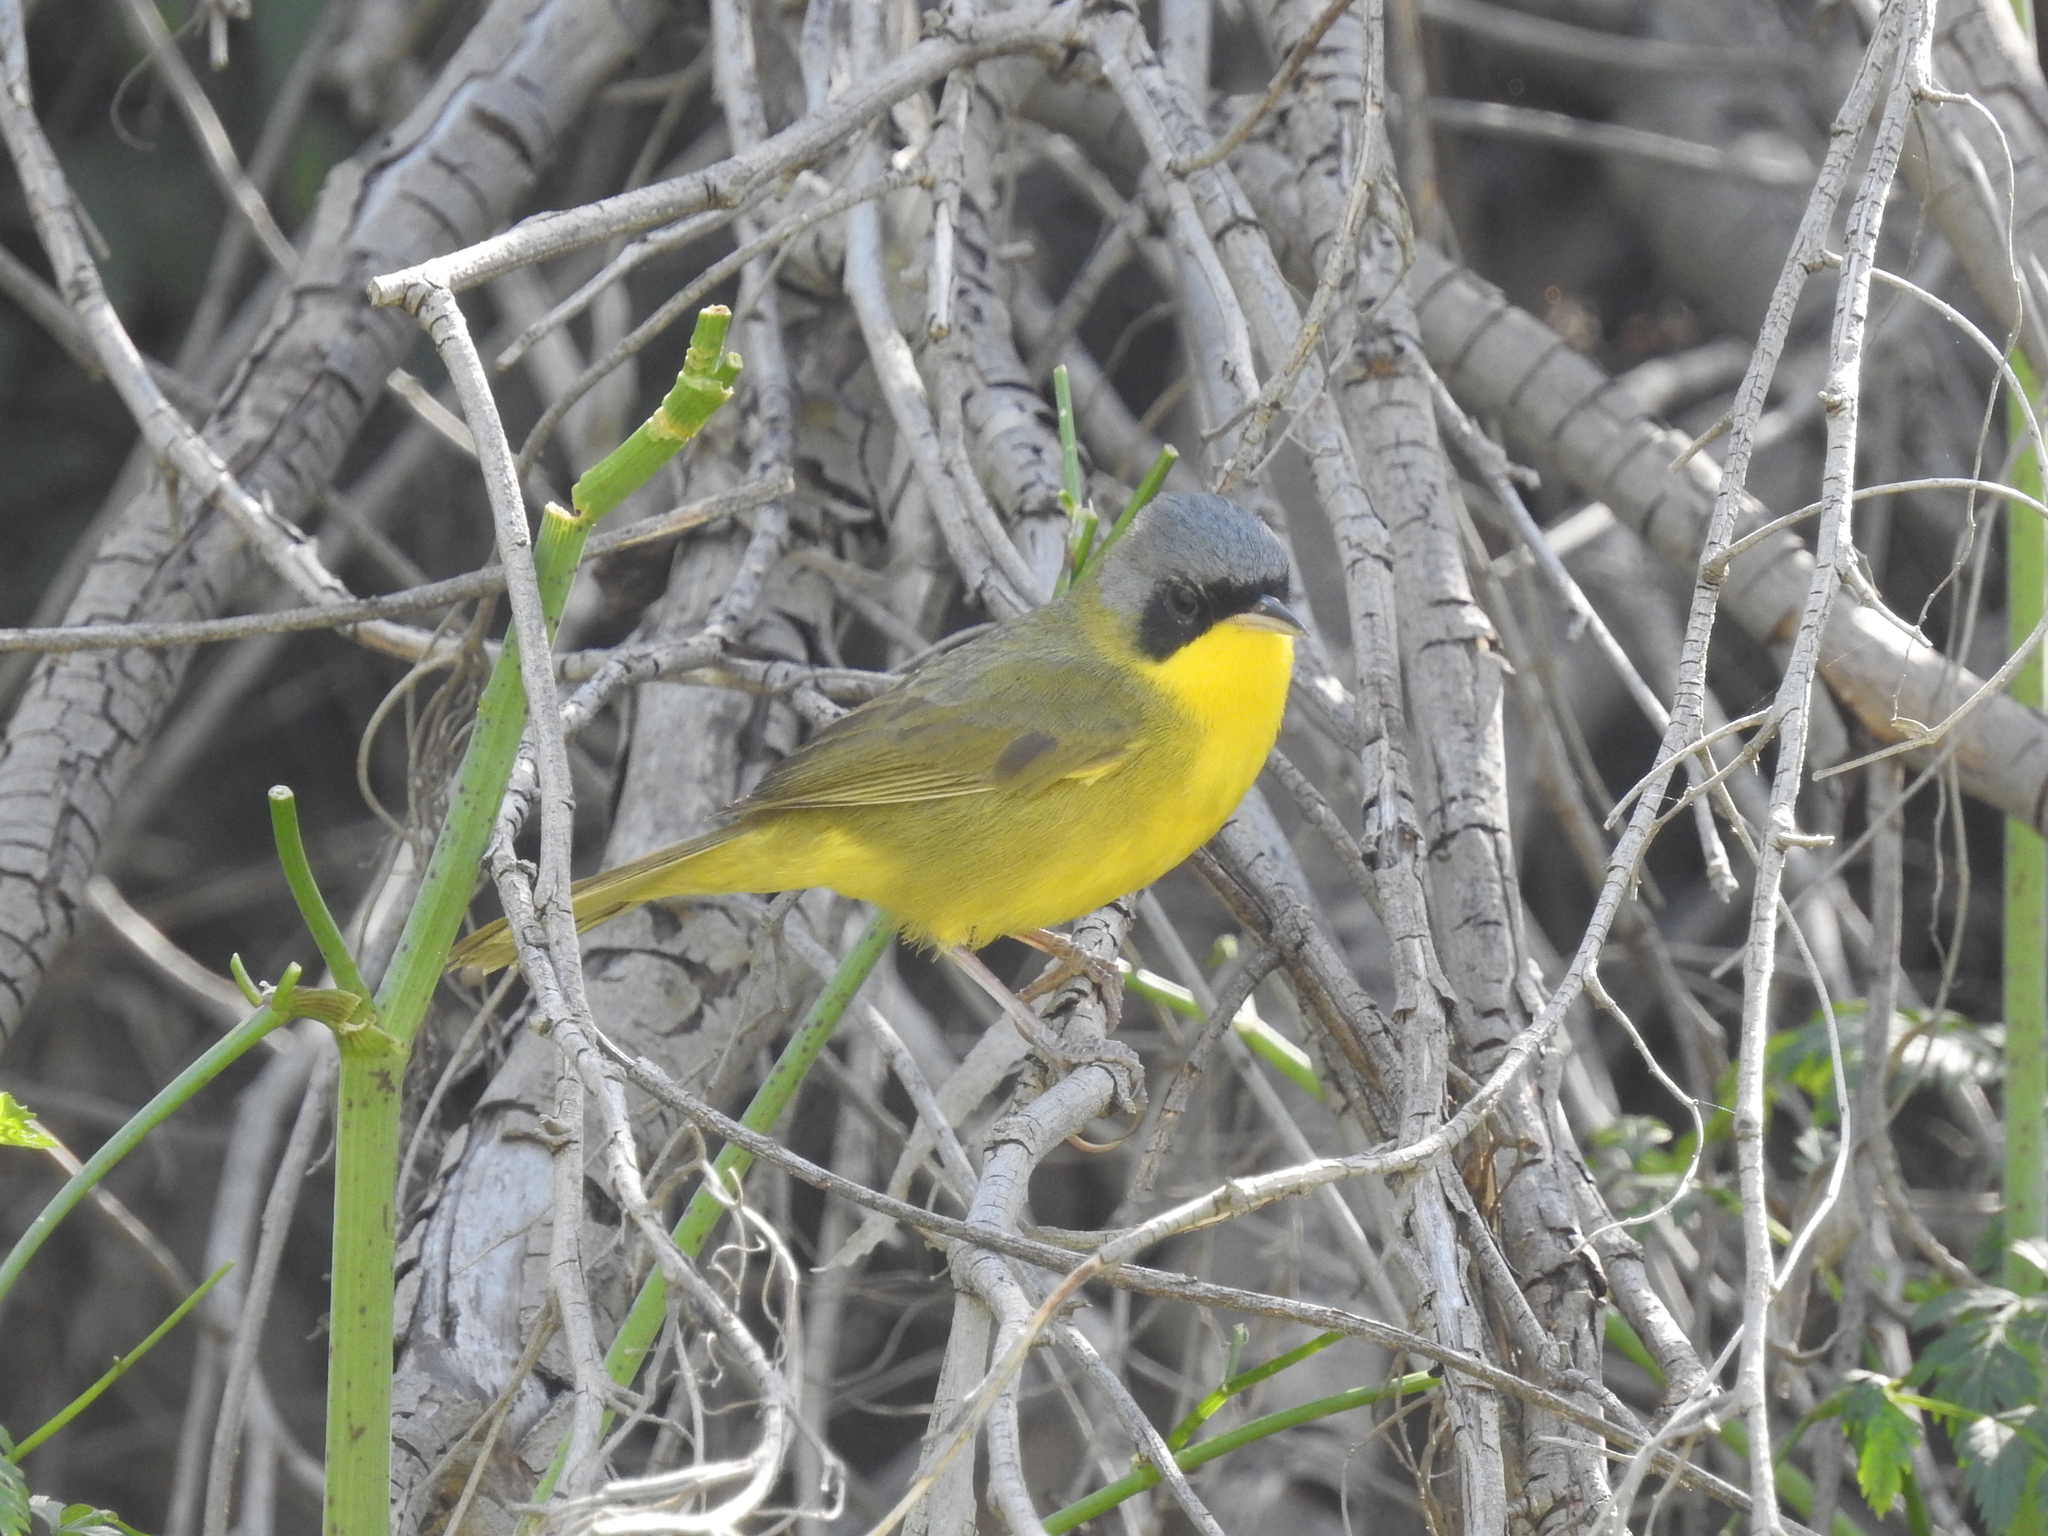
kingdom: Animalia
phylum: Chordata
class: Aves
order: Passeriformes
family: Parulidae
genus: Geothlypis
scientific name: Geothlypis velata
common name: Southern yellowthroat
